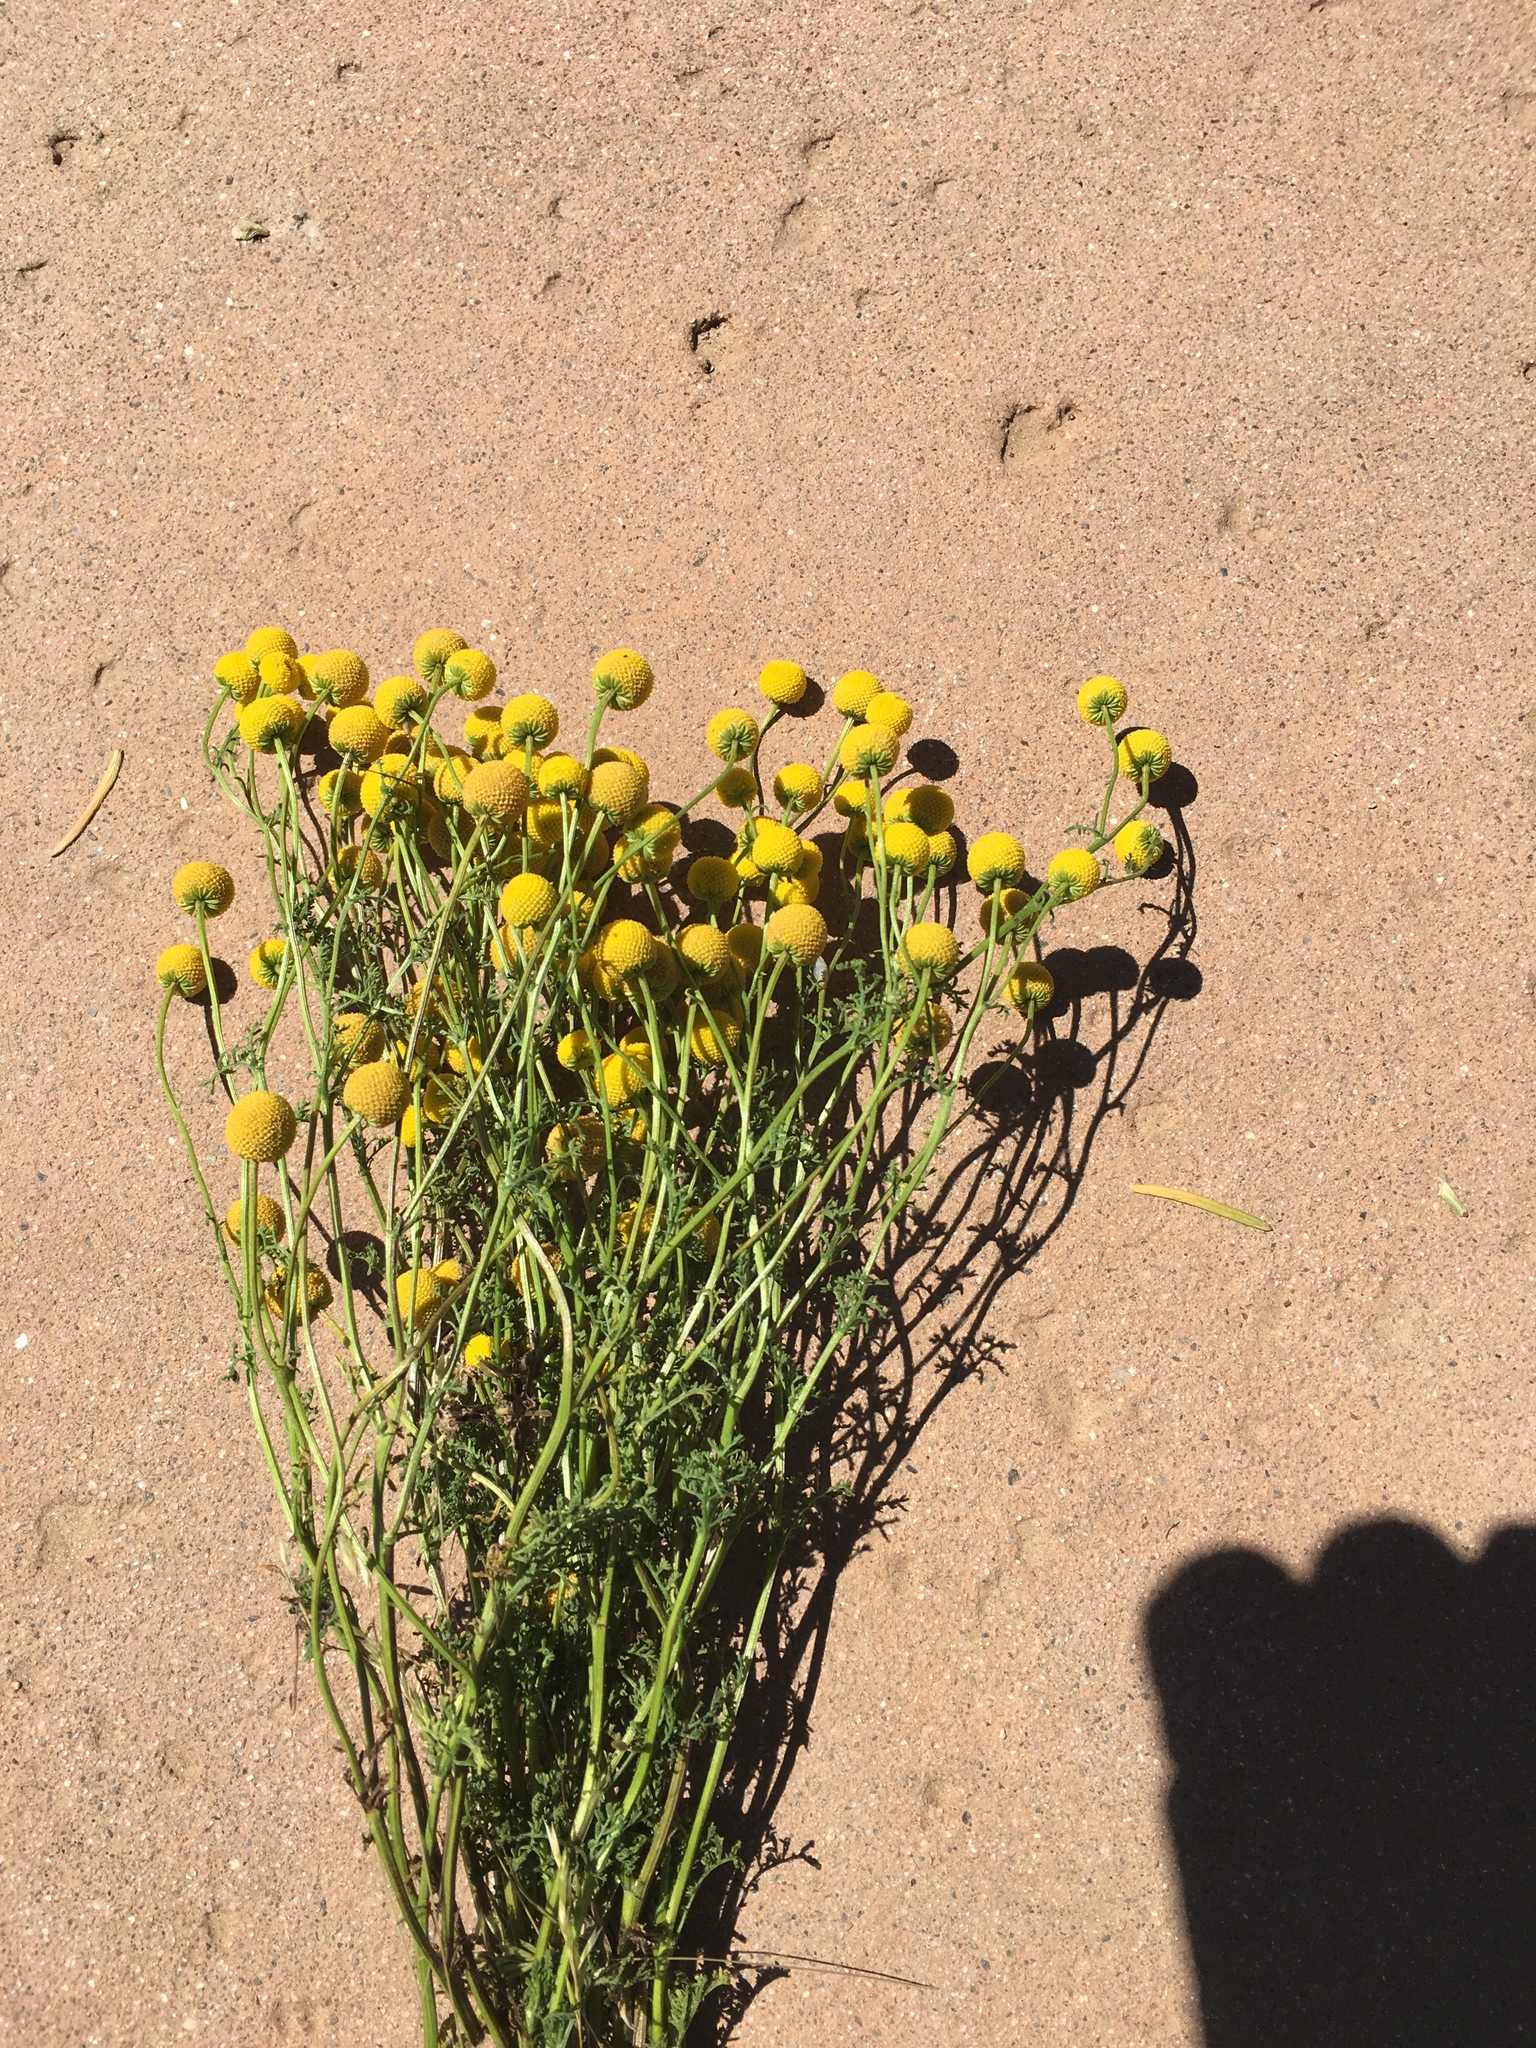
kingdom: Plantae
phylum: Tracheophyta
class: Magnoliopsida
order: Asterales
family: Asteraceae
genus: Oncosiphon
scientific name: Oncosiphon pilulifer
